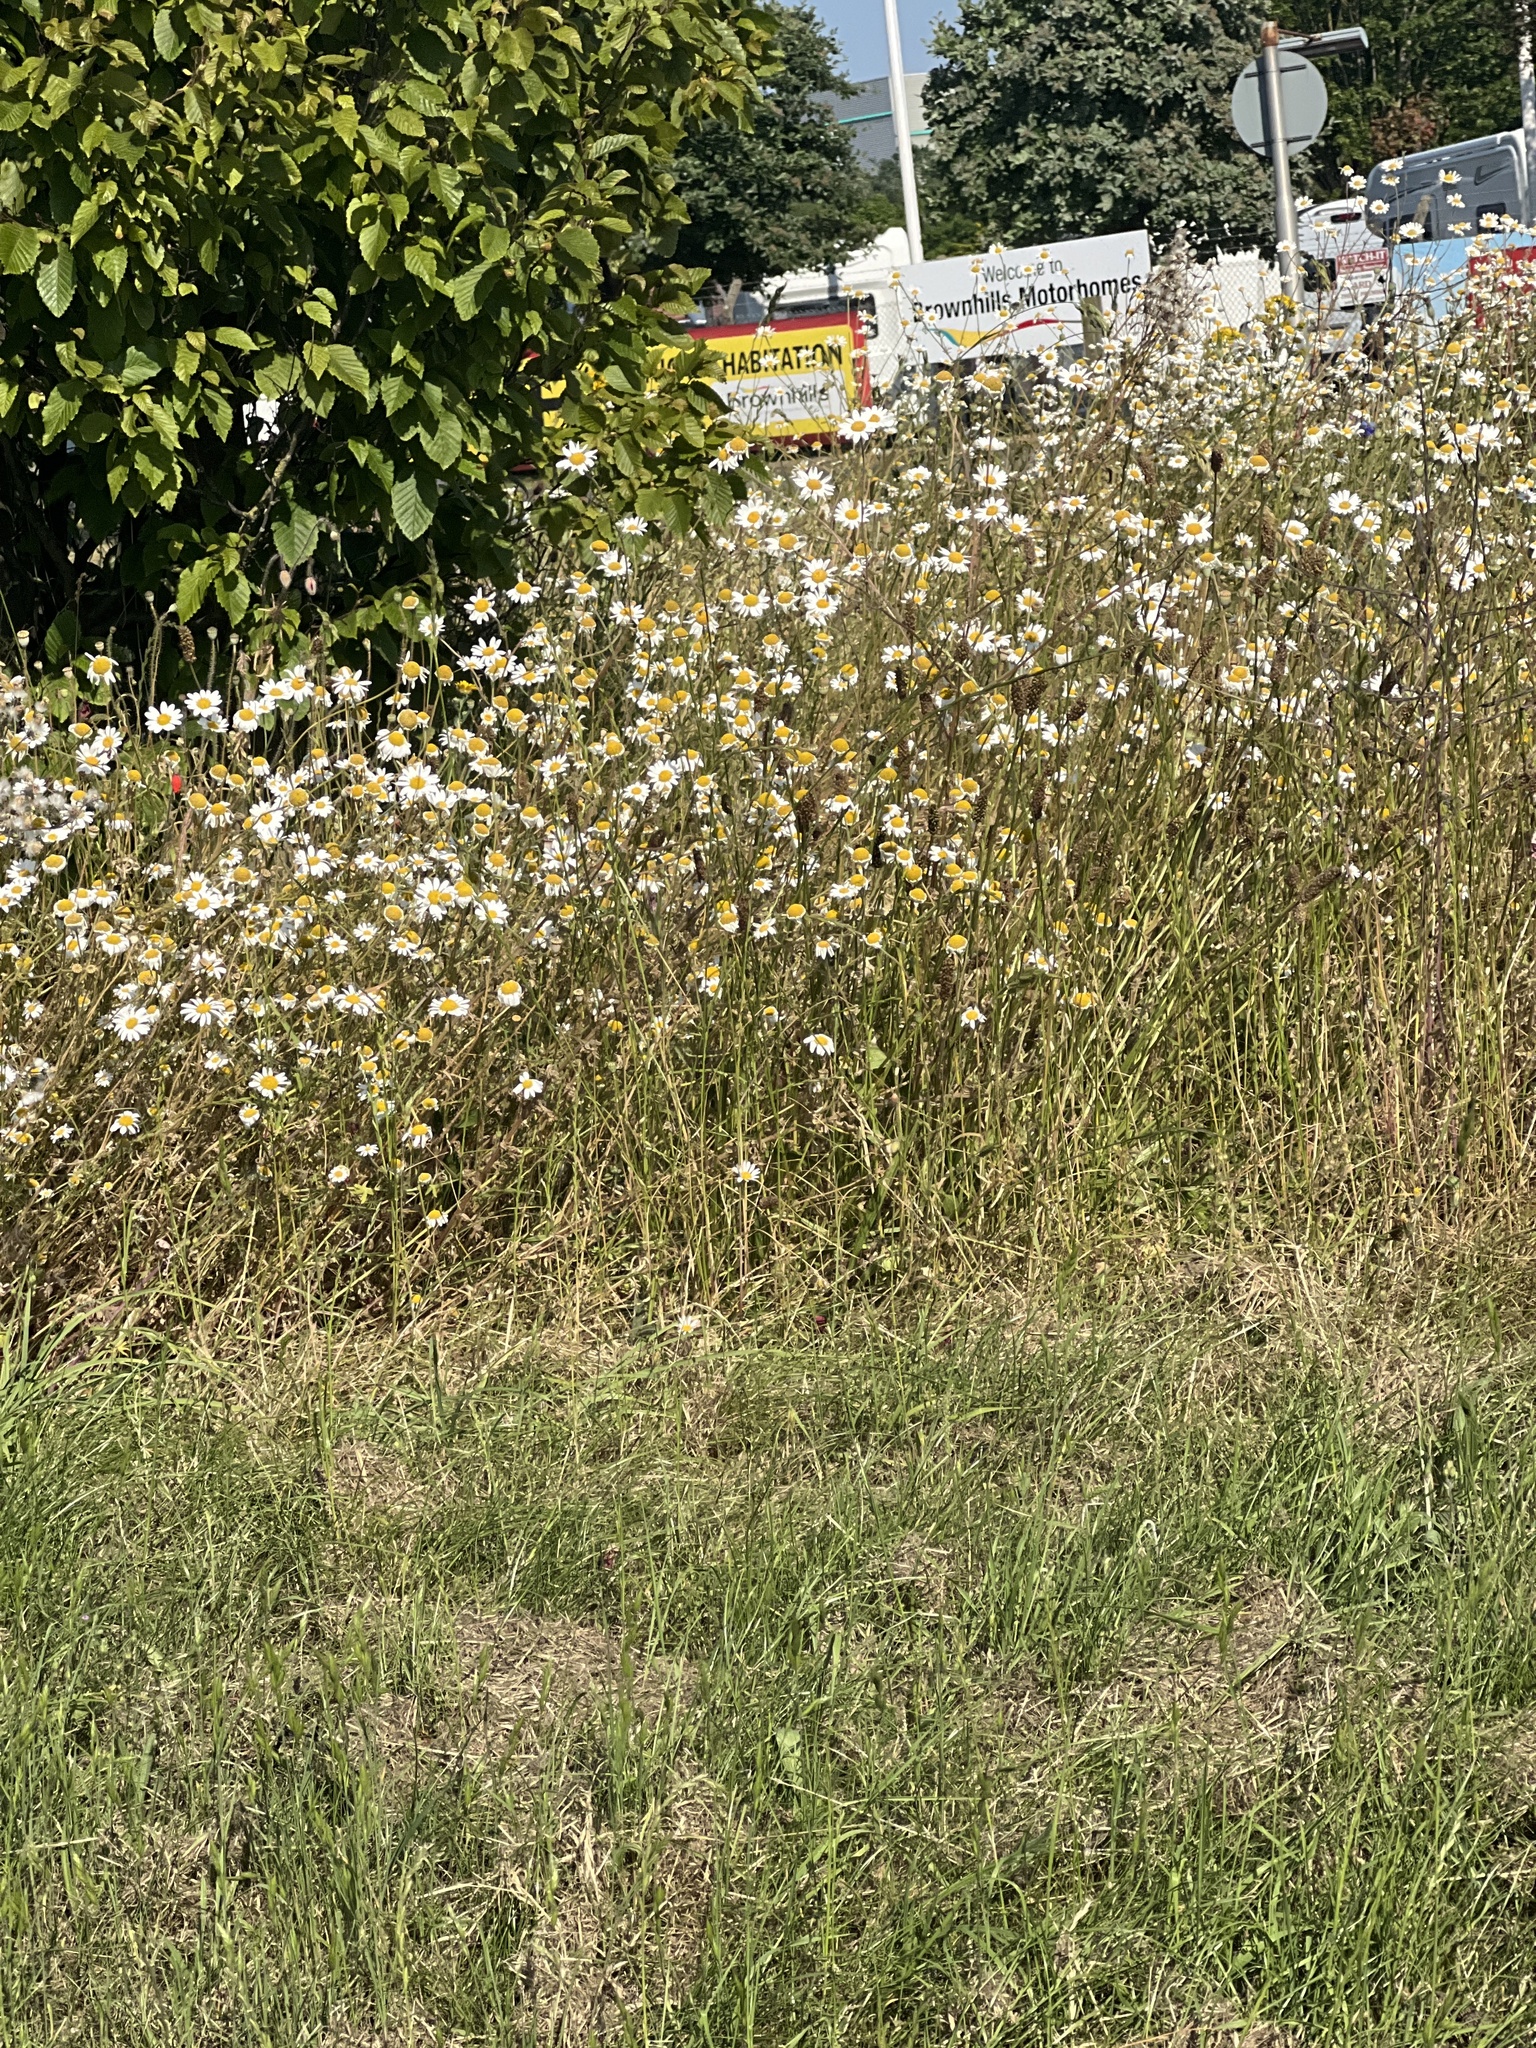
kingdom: Plantae
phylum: Tracheophyta
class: Magnoliopsida
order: Asterales
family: Asteraceae
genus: Leucanthemum
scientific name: Leucanthemum vulgare
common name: Oxeye daisy
